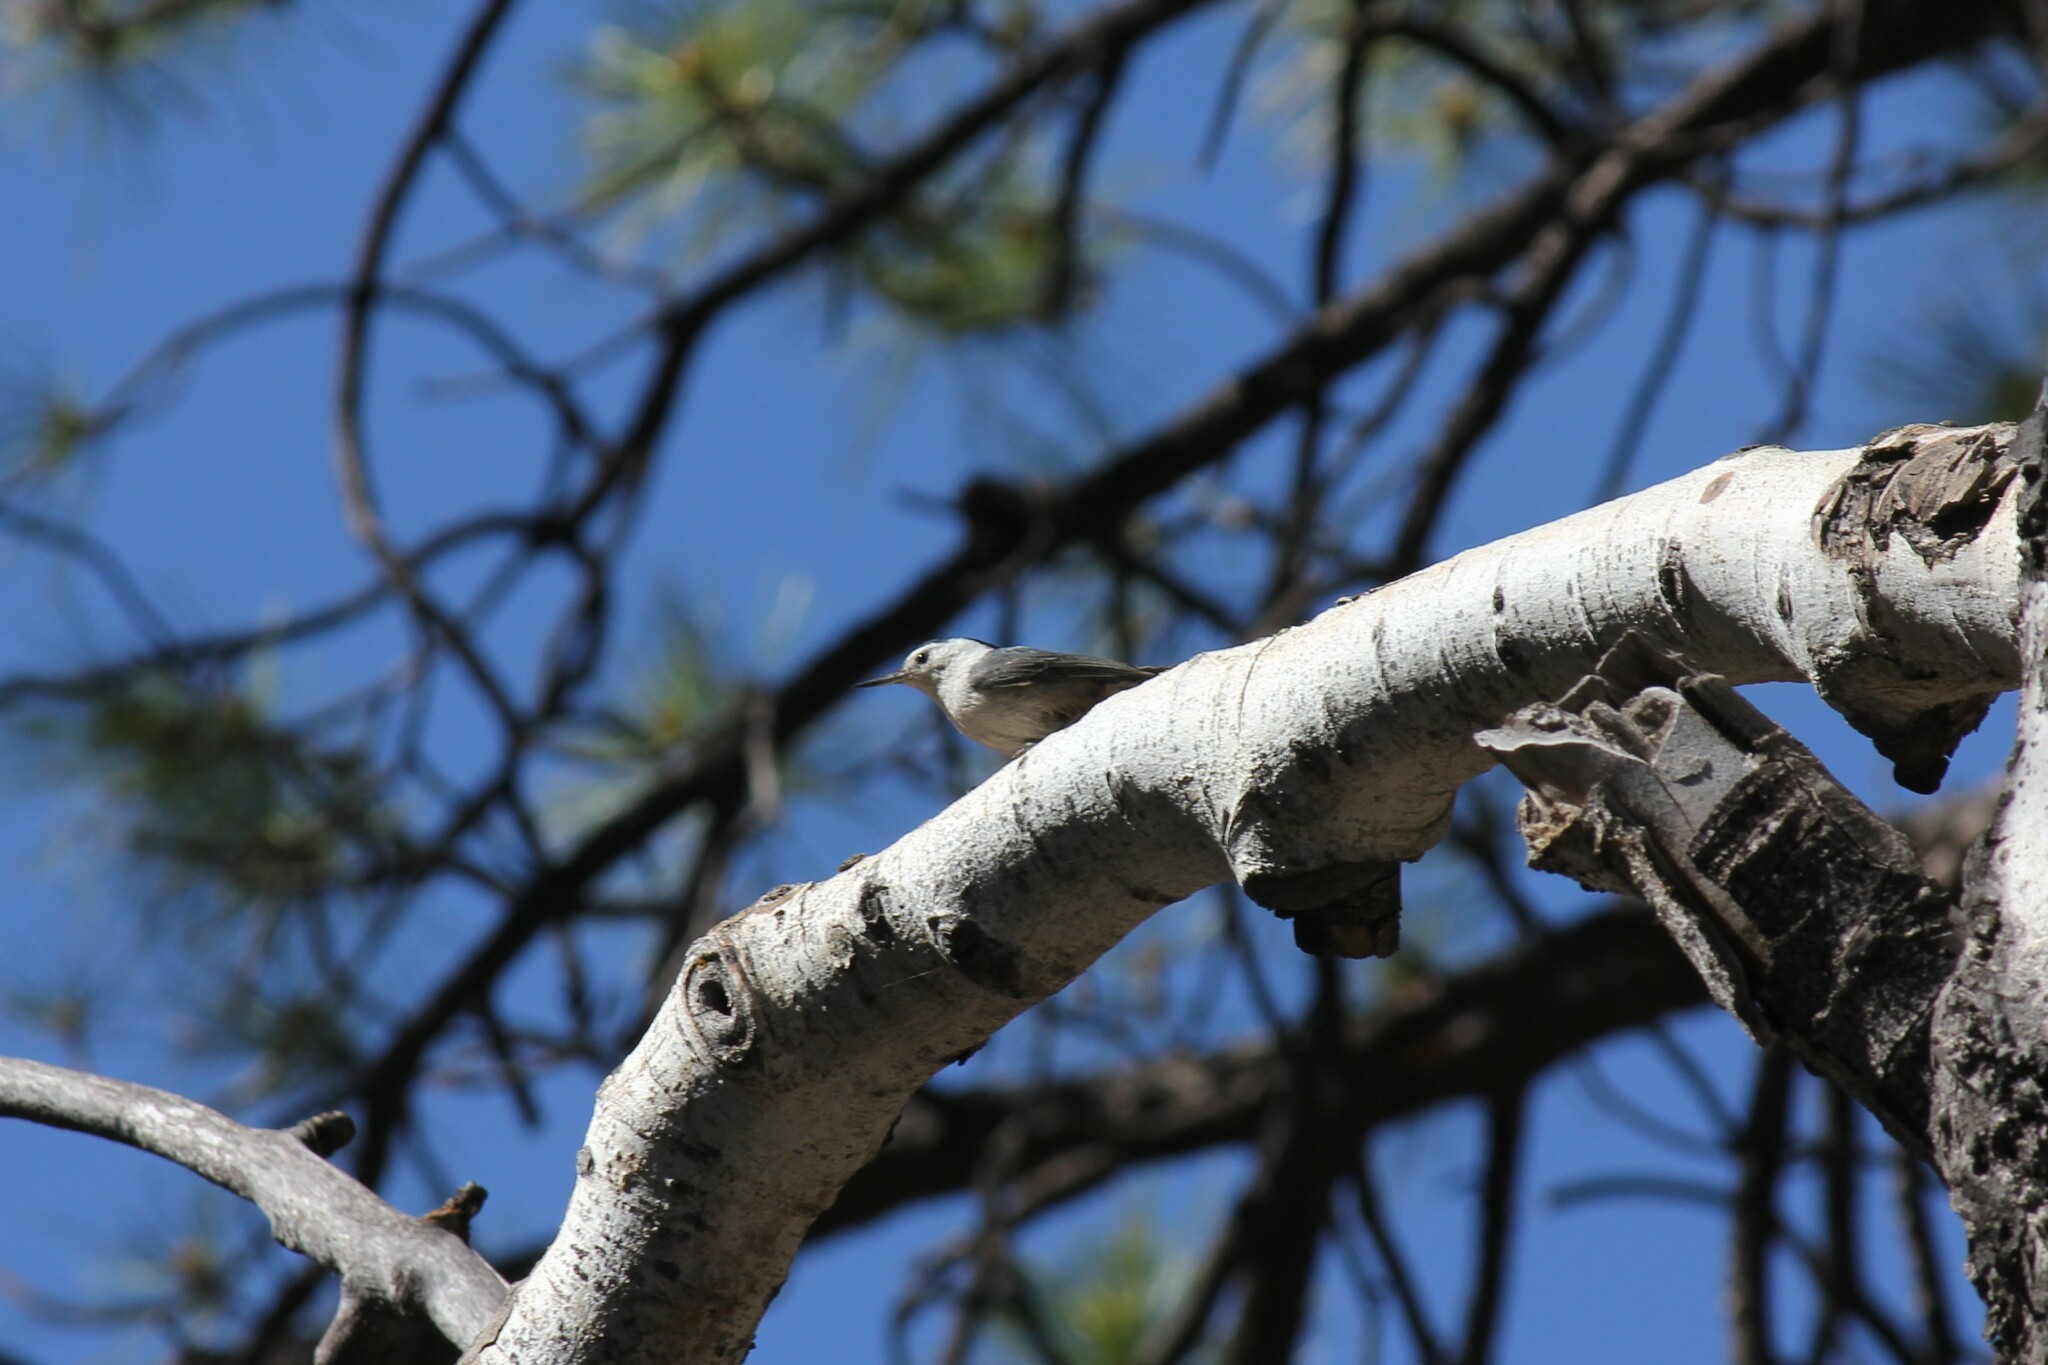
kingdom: Animalia
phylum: Chordata
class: Aves
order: Passeriformes
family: Sittidae
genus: Sitta
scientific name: Sitta carolinensis
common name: White-breasted nuthatch
